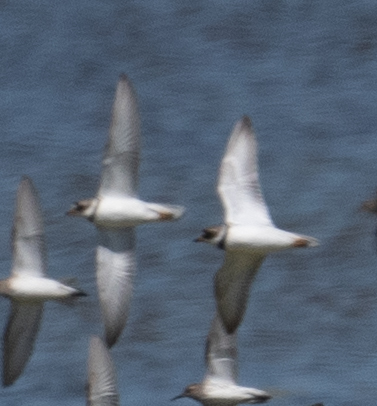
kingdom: Animalia
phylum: Chordata
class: Aves
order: Charadriiformes
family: Charadriidae
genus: Charadrius
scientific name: Charadrius semipalmatus
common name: Semipalmated plover
